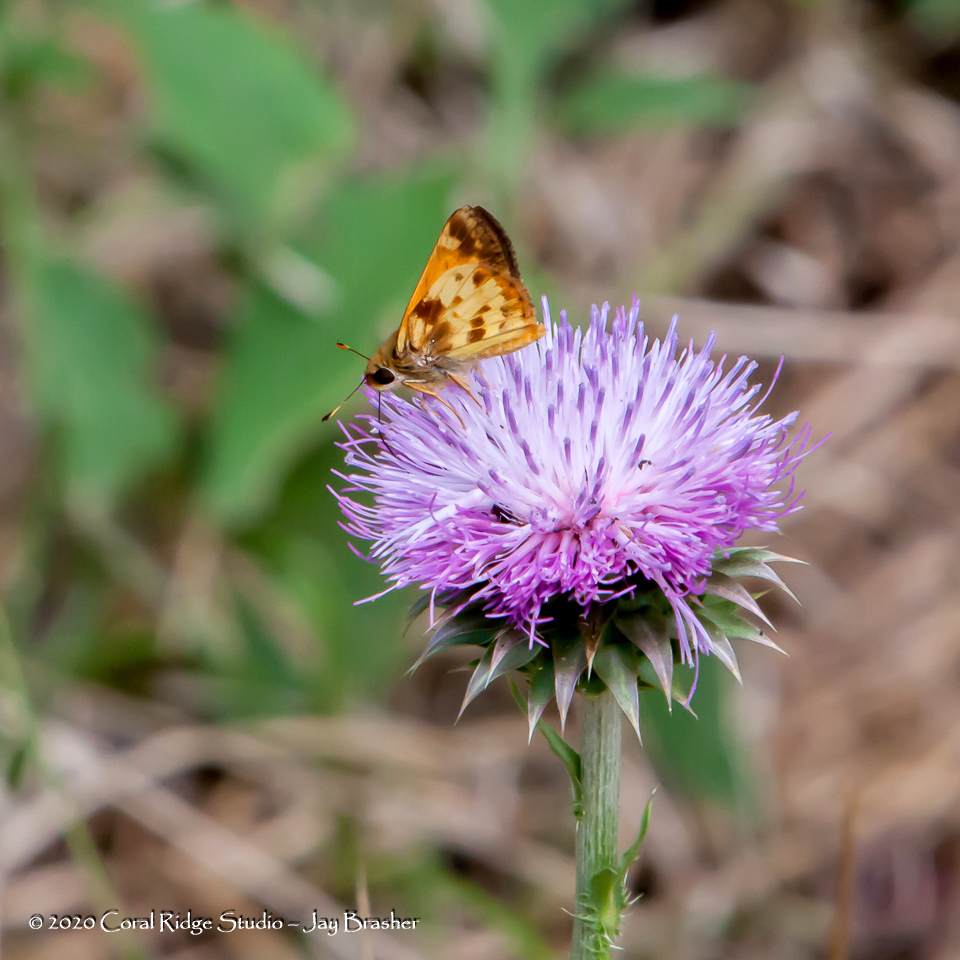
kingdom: Animalia
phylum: Arthropoda
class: Insecta
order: Lepidoptera
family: Hesperiidae
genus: Lon
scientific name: Lon zabulon
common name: Zabulon skipper
